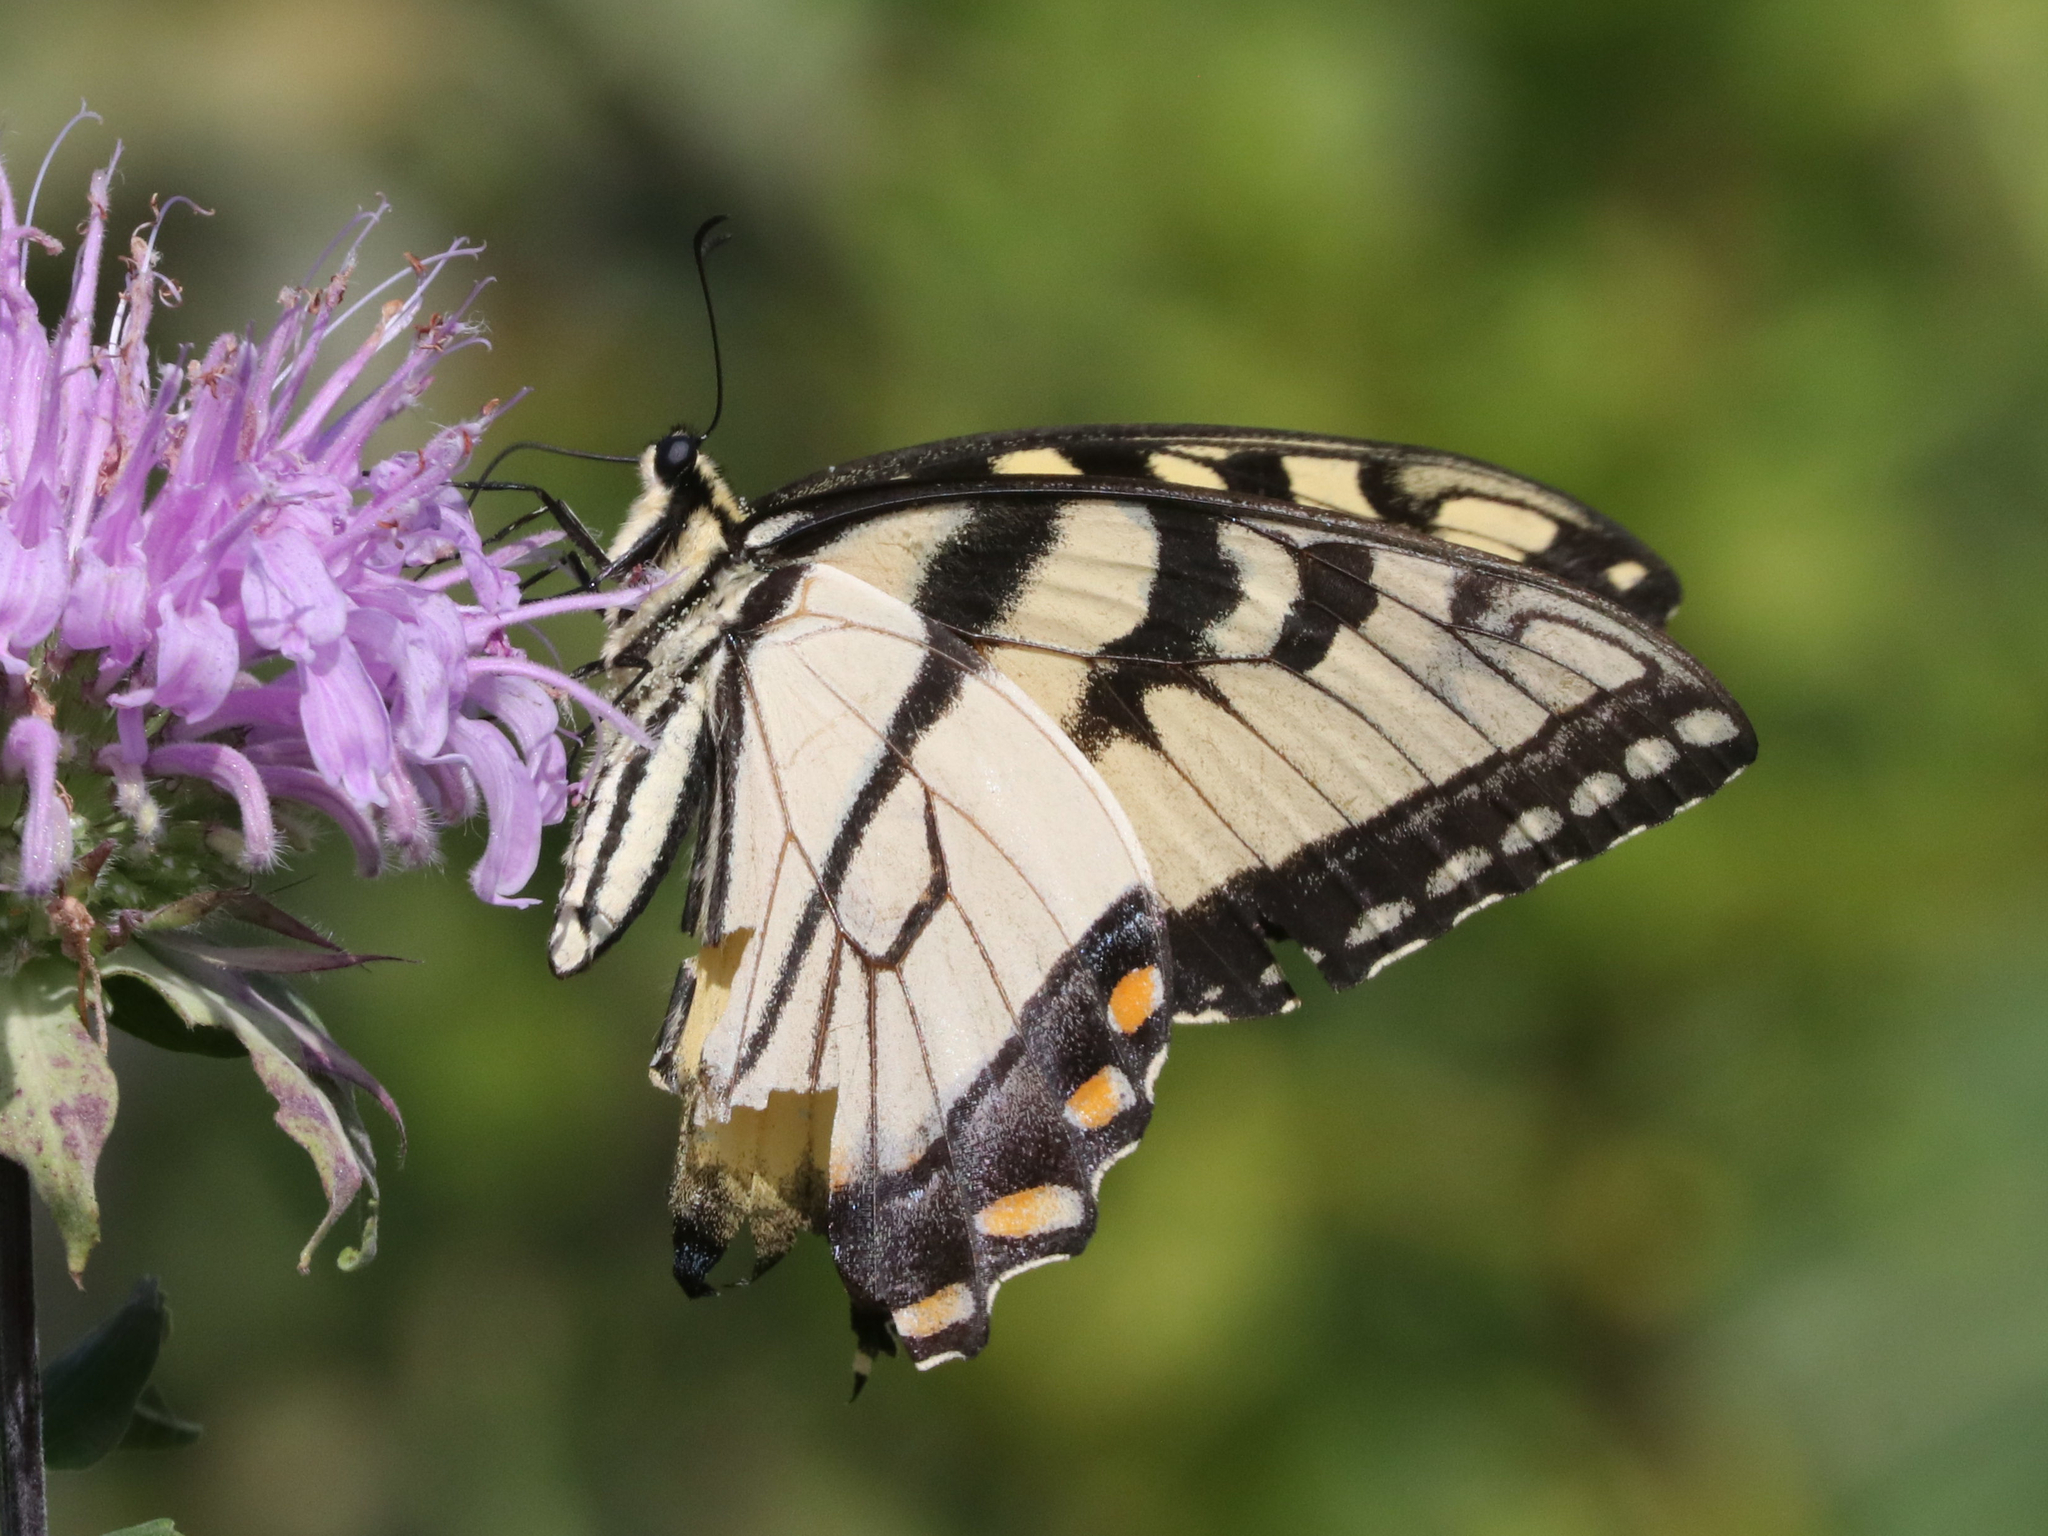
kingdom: Animalia
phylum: Arthropoda
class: Insecta
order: Lepidoptera
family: Papilionidae
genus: Papilio
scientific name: Papilio glaucus
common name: Tiger swallowtail
